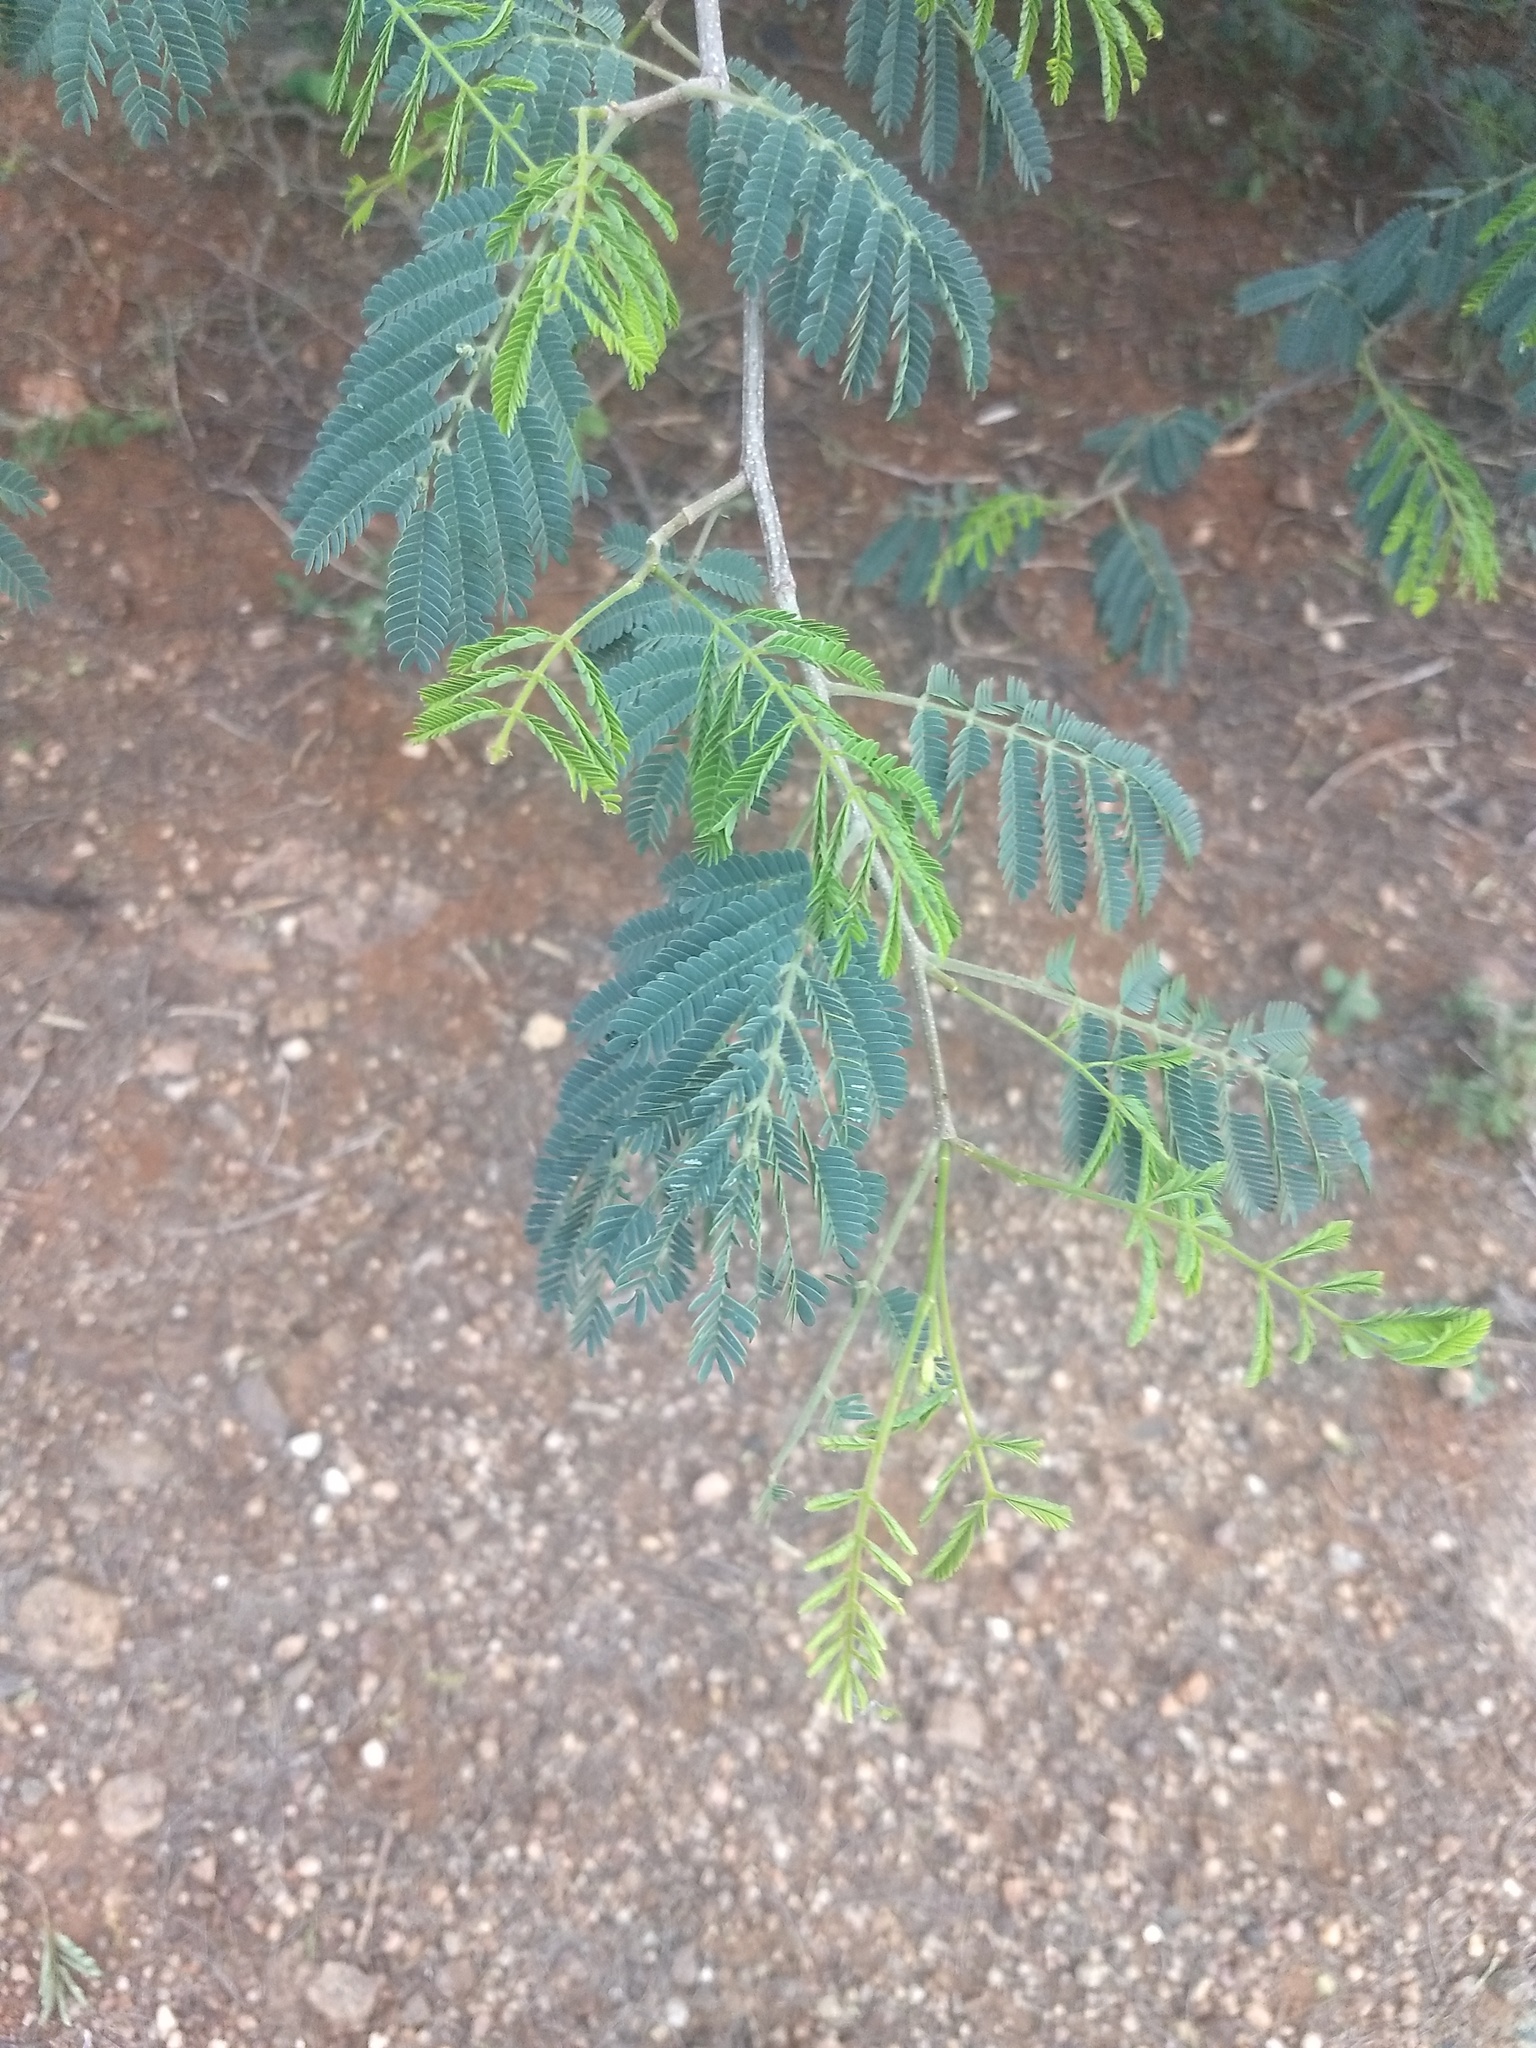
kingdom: Plantae
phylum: Tracheophyta
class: Magnoliopsida
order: Fabales
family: Fabaceae
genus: Albizia
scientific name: Albizia amara
